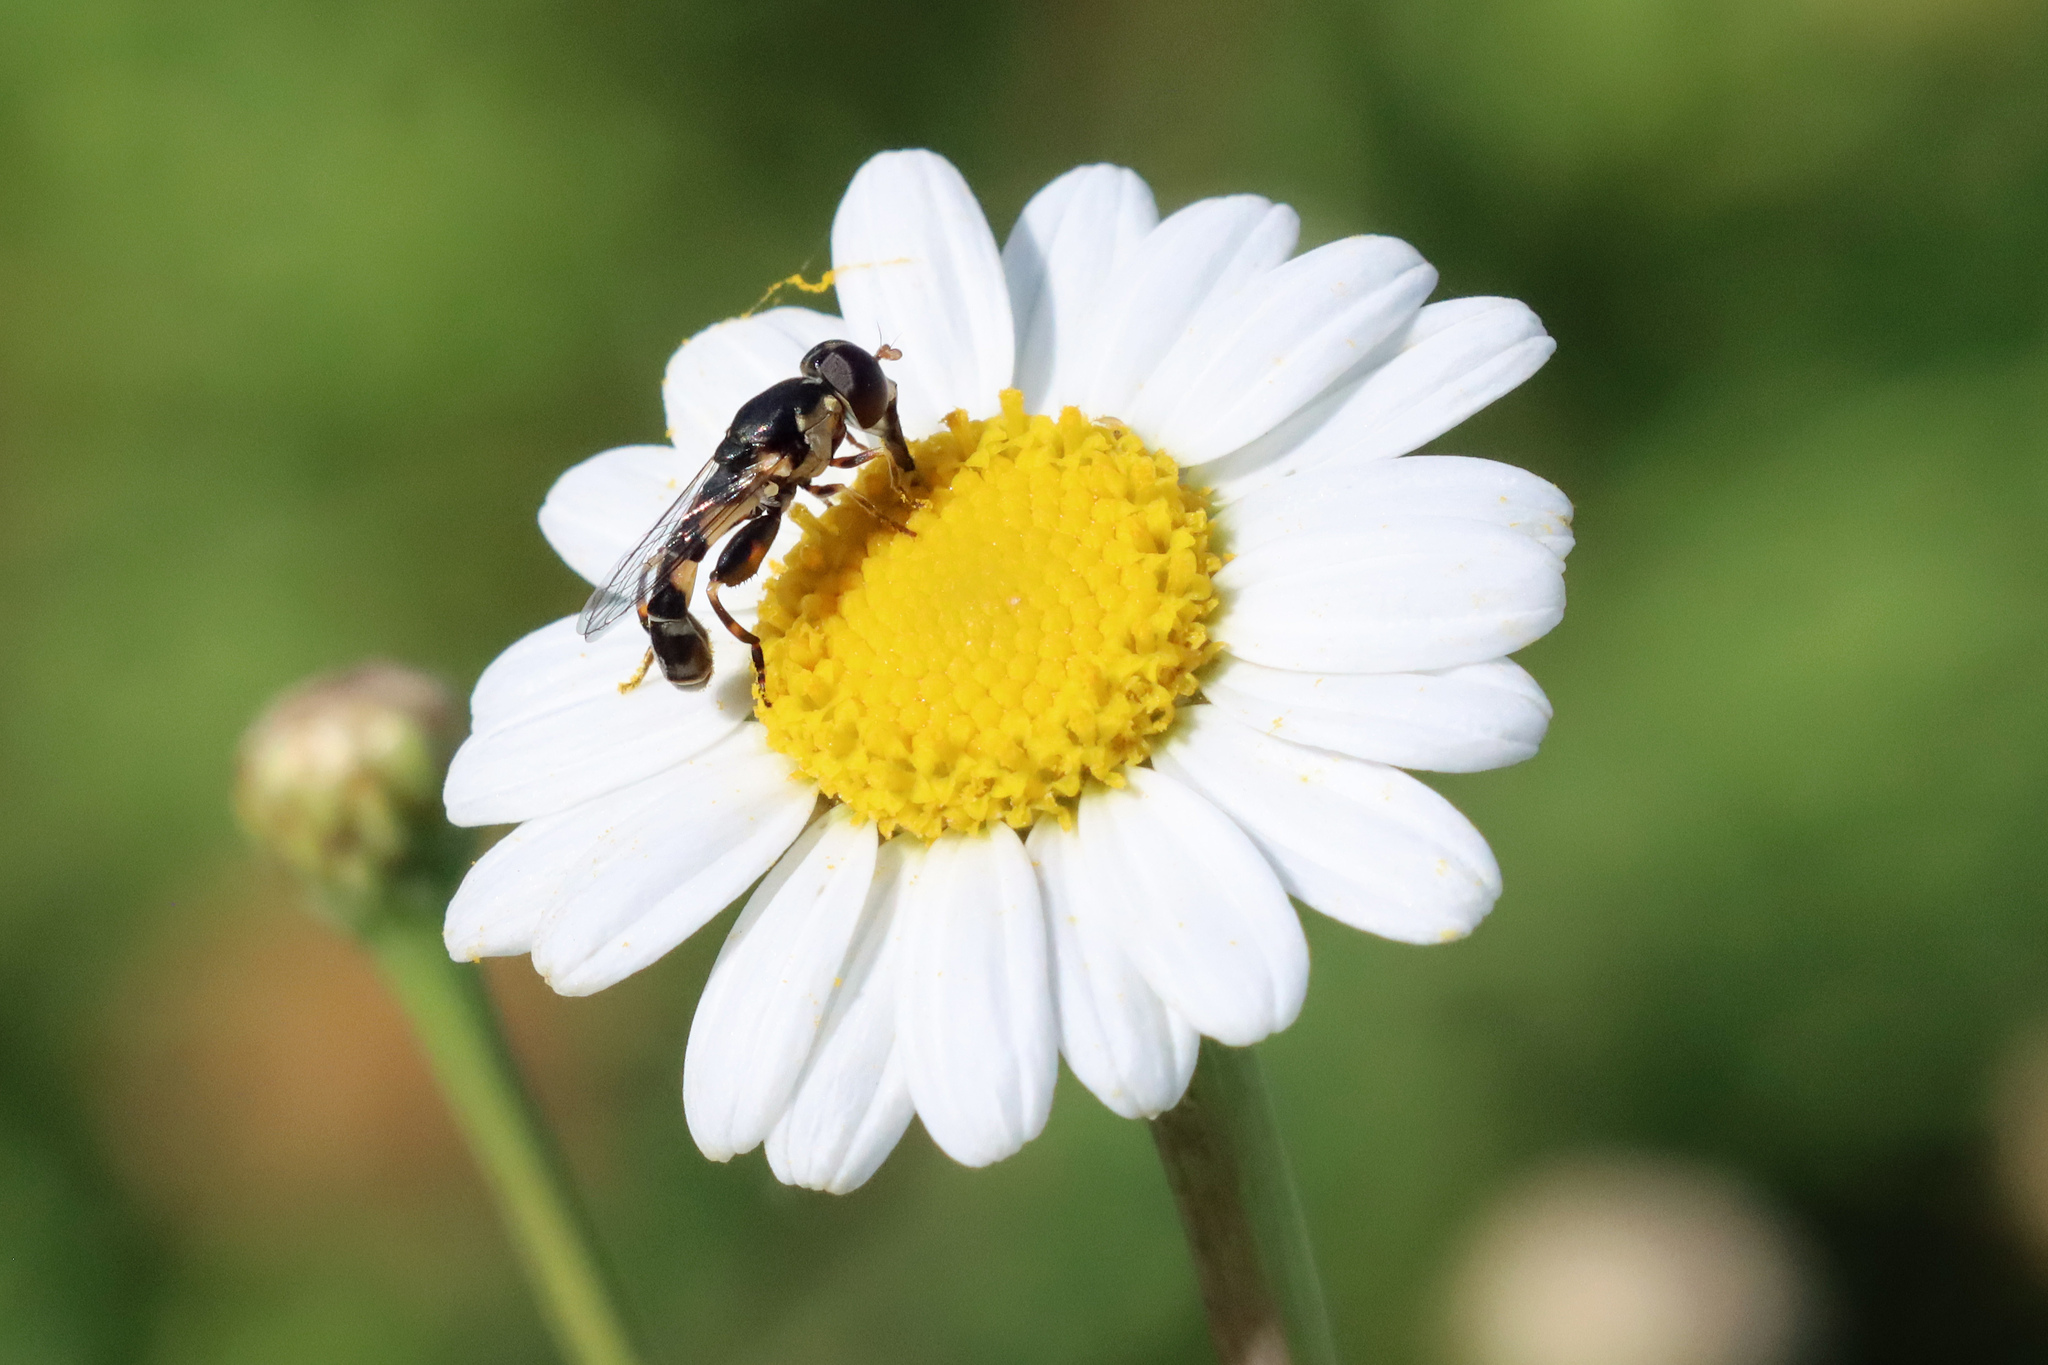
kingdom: Animalia
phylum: Arthropoda
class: Insecta
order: Diptera
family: Syrphidae
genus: Syritta
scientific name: Syritta pipiens
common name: Hover fly
